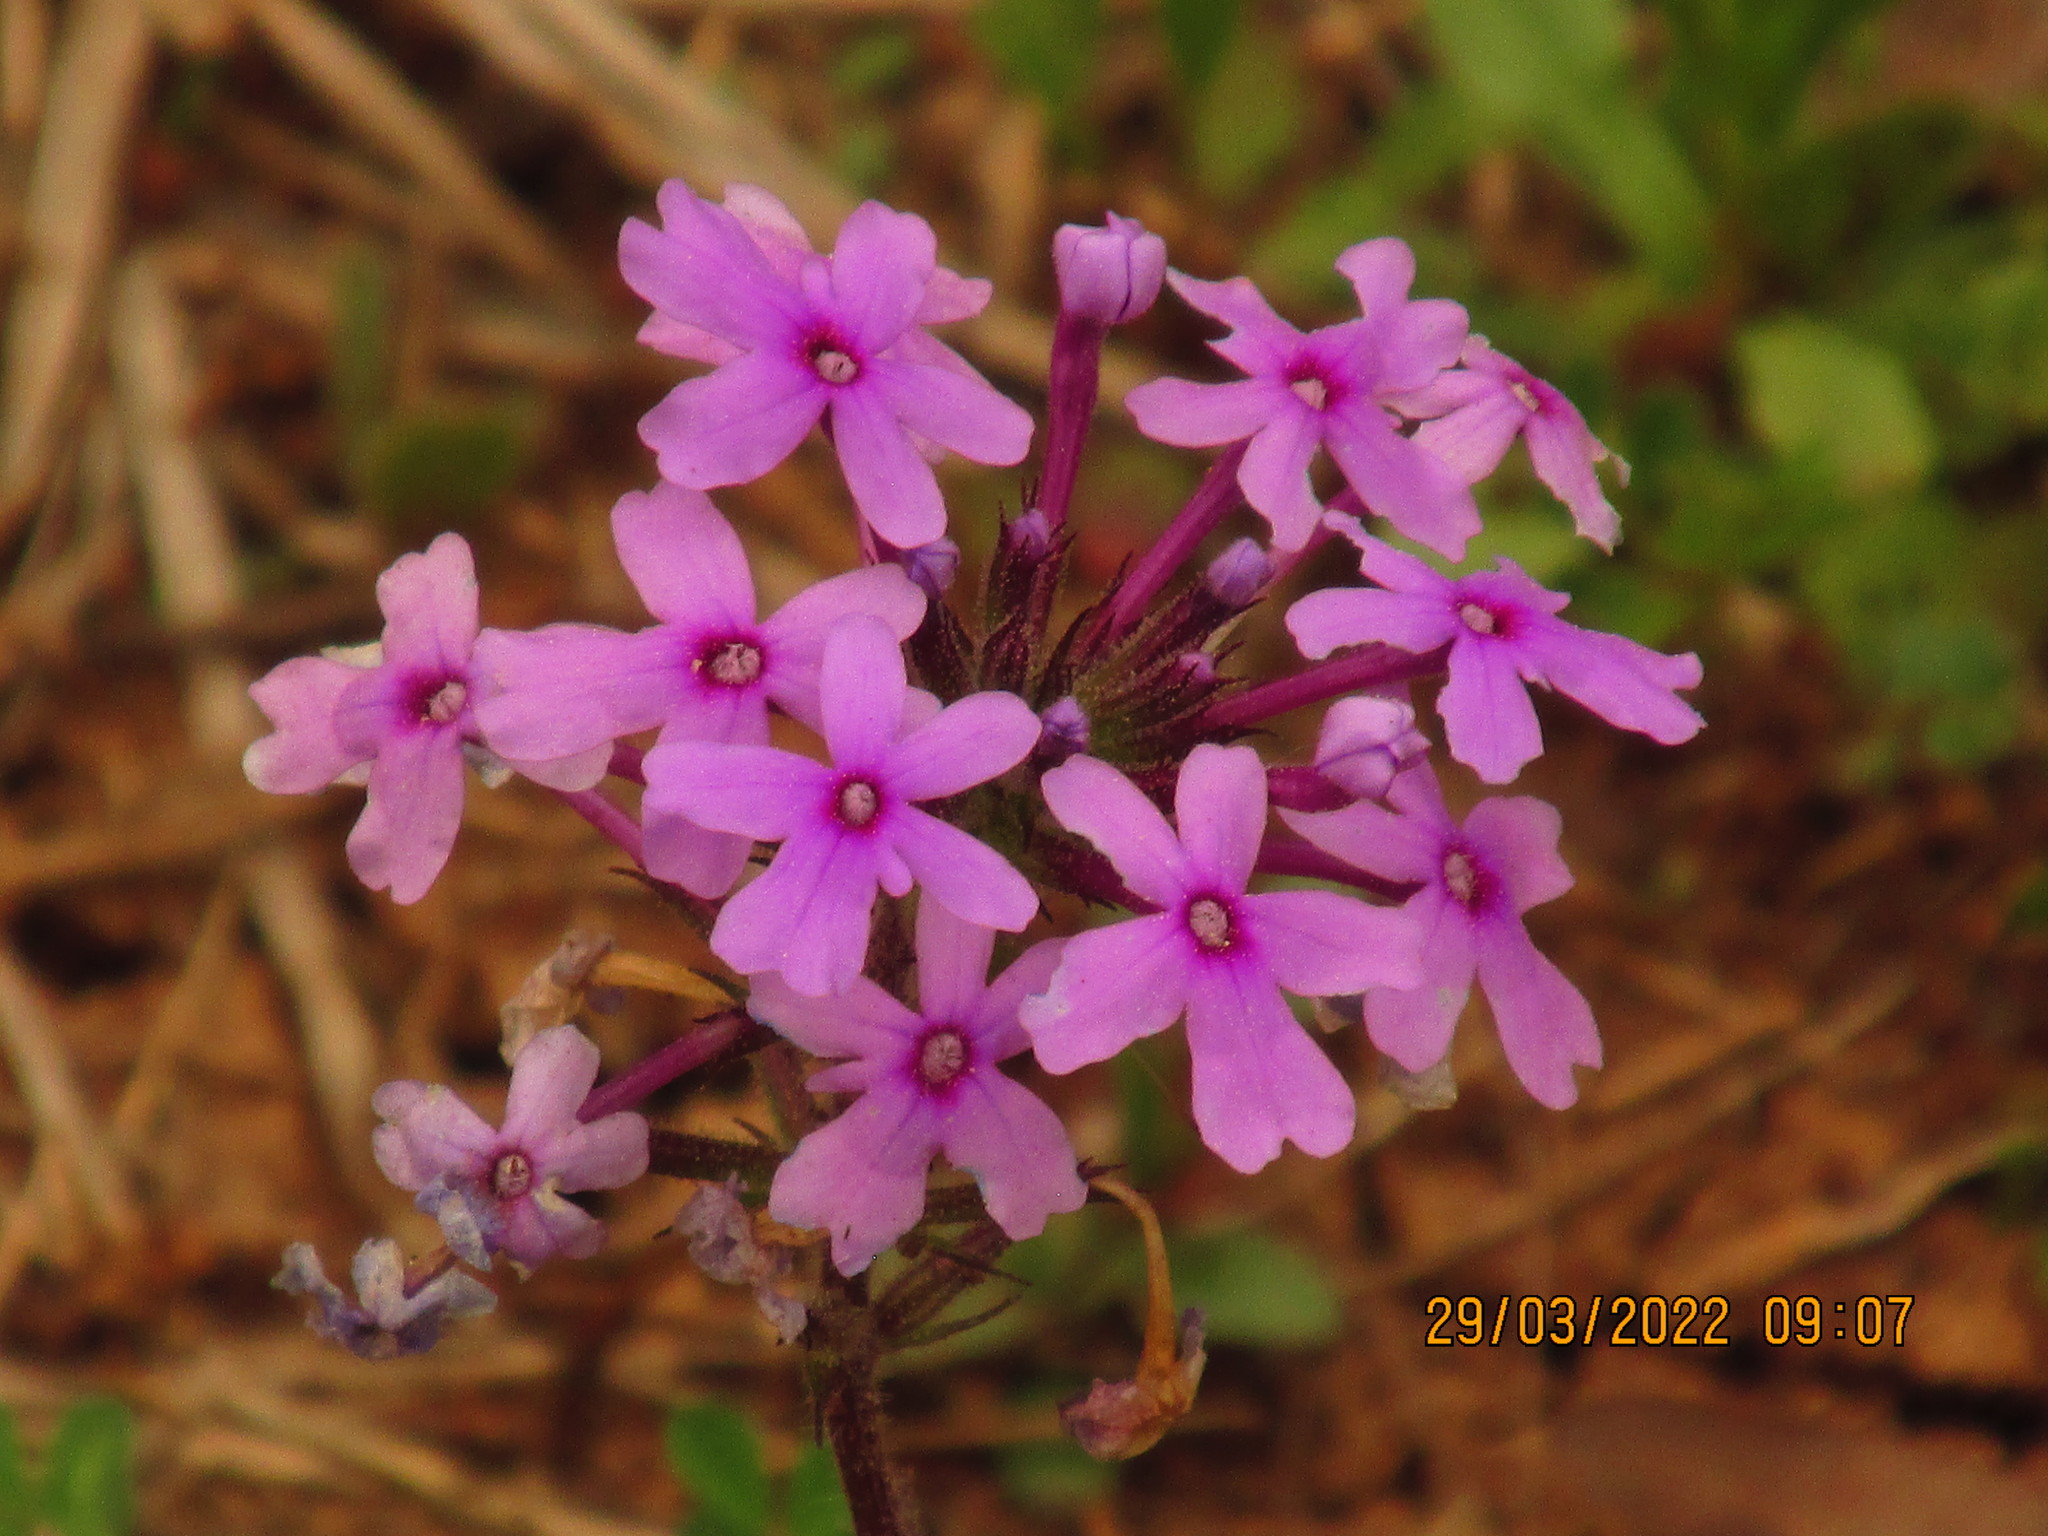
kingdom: Plantae
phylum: Tracheophyta
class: Magnoliopsida
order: Lamiales
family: Verbenaceae
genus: Verbena
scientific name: Verbena canadensis
